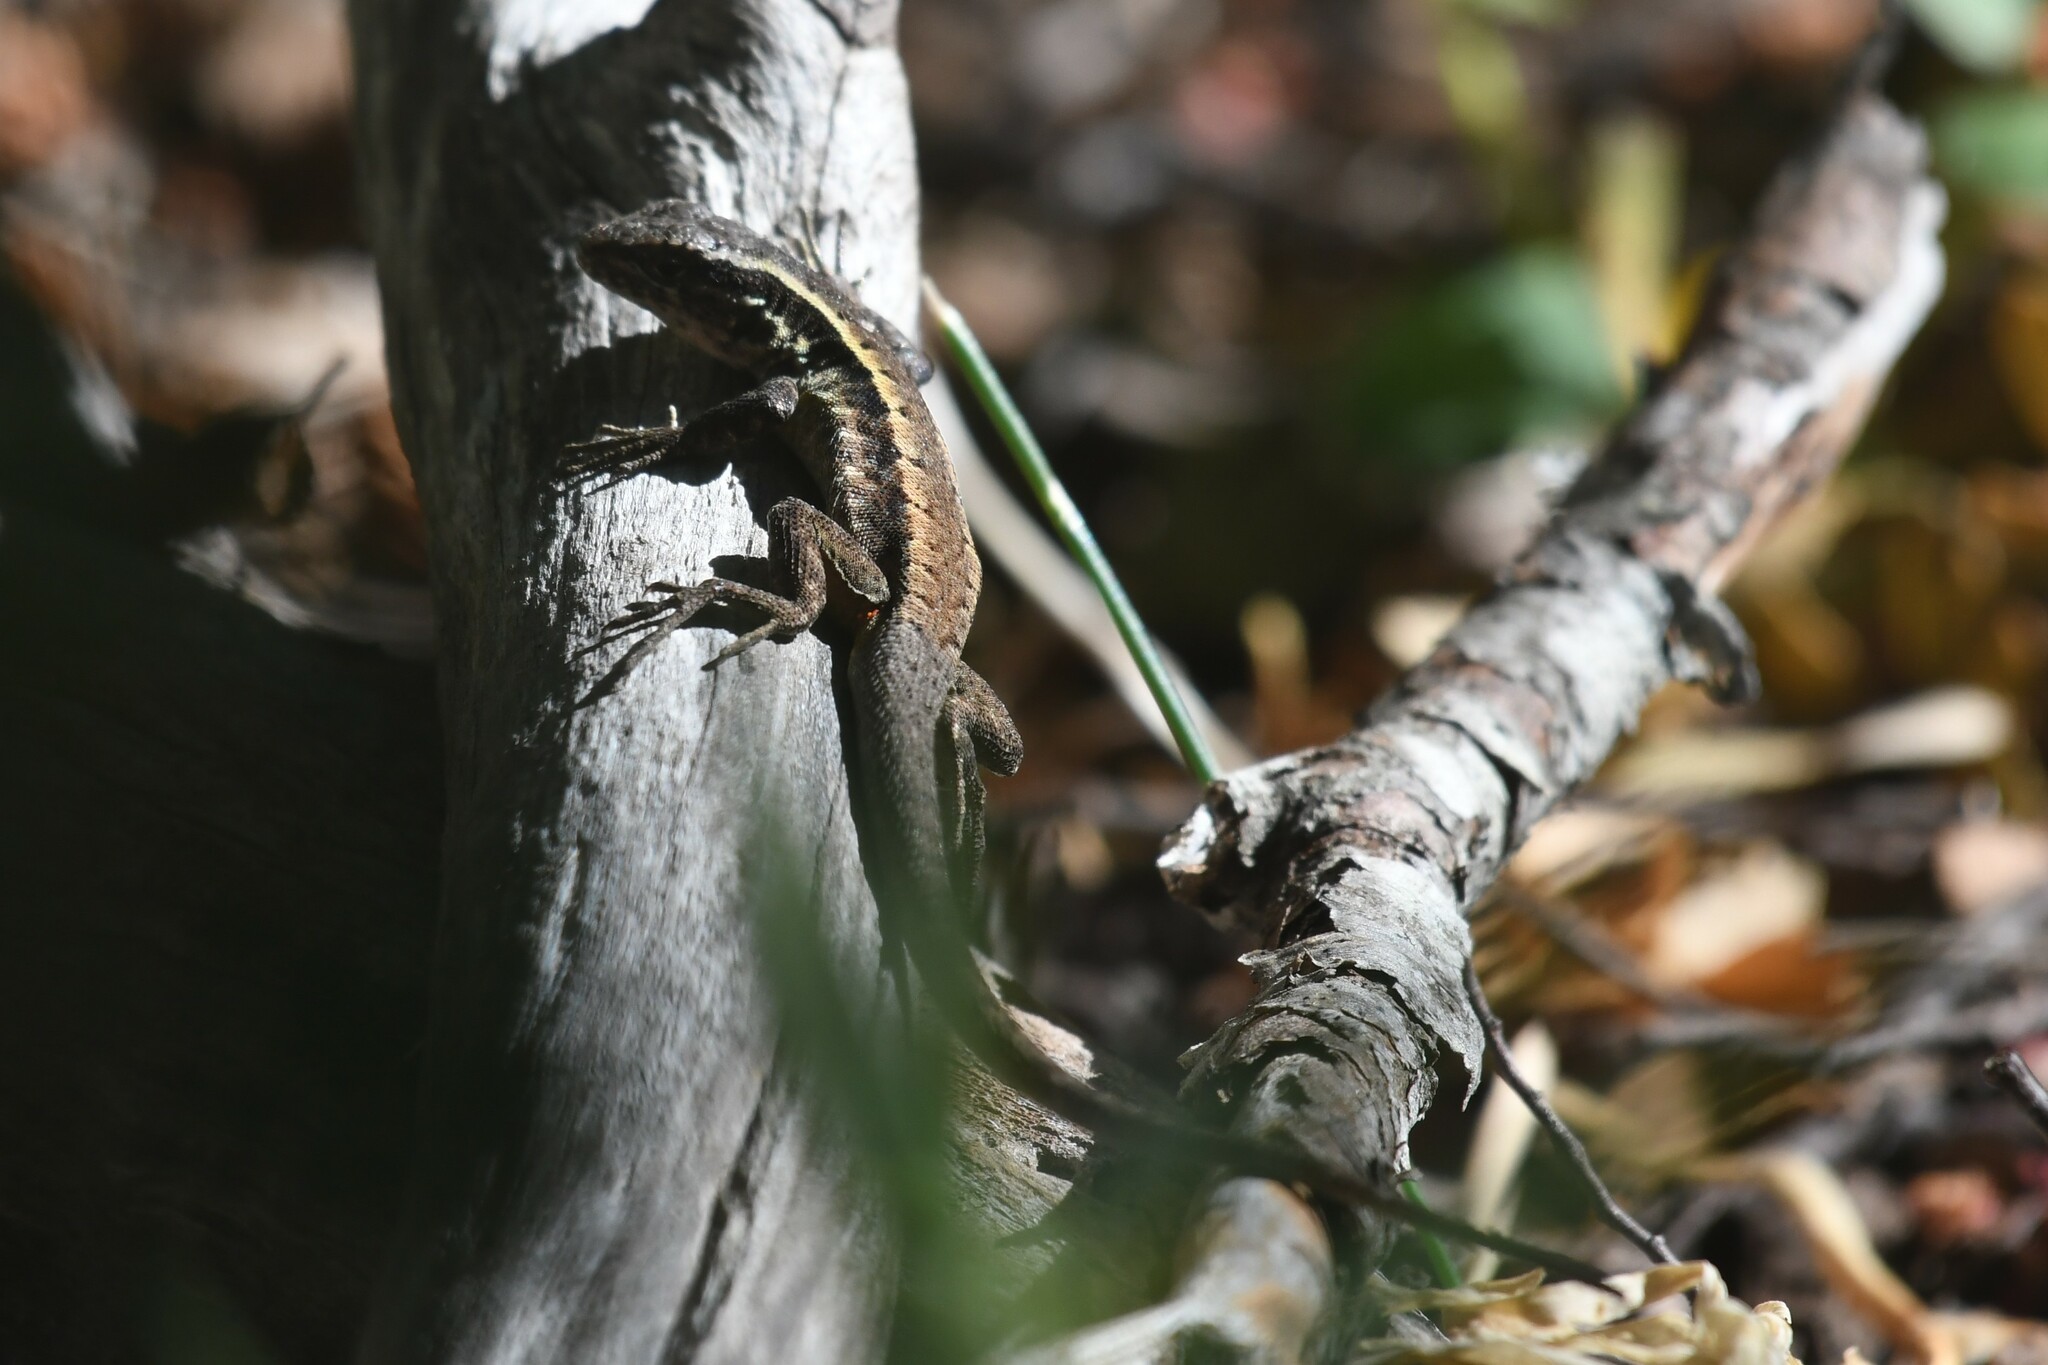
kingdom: Animalia
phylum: Chordata
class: Squamata
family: Liolaemidae
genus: Liolaemus
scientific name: Liolaemus septentrionalis
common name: Painted tree iguana
